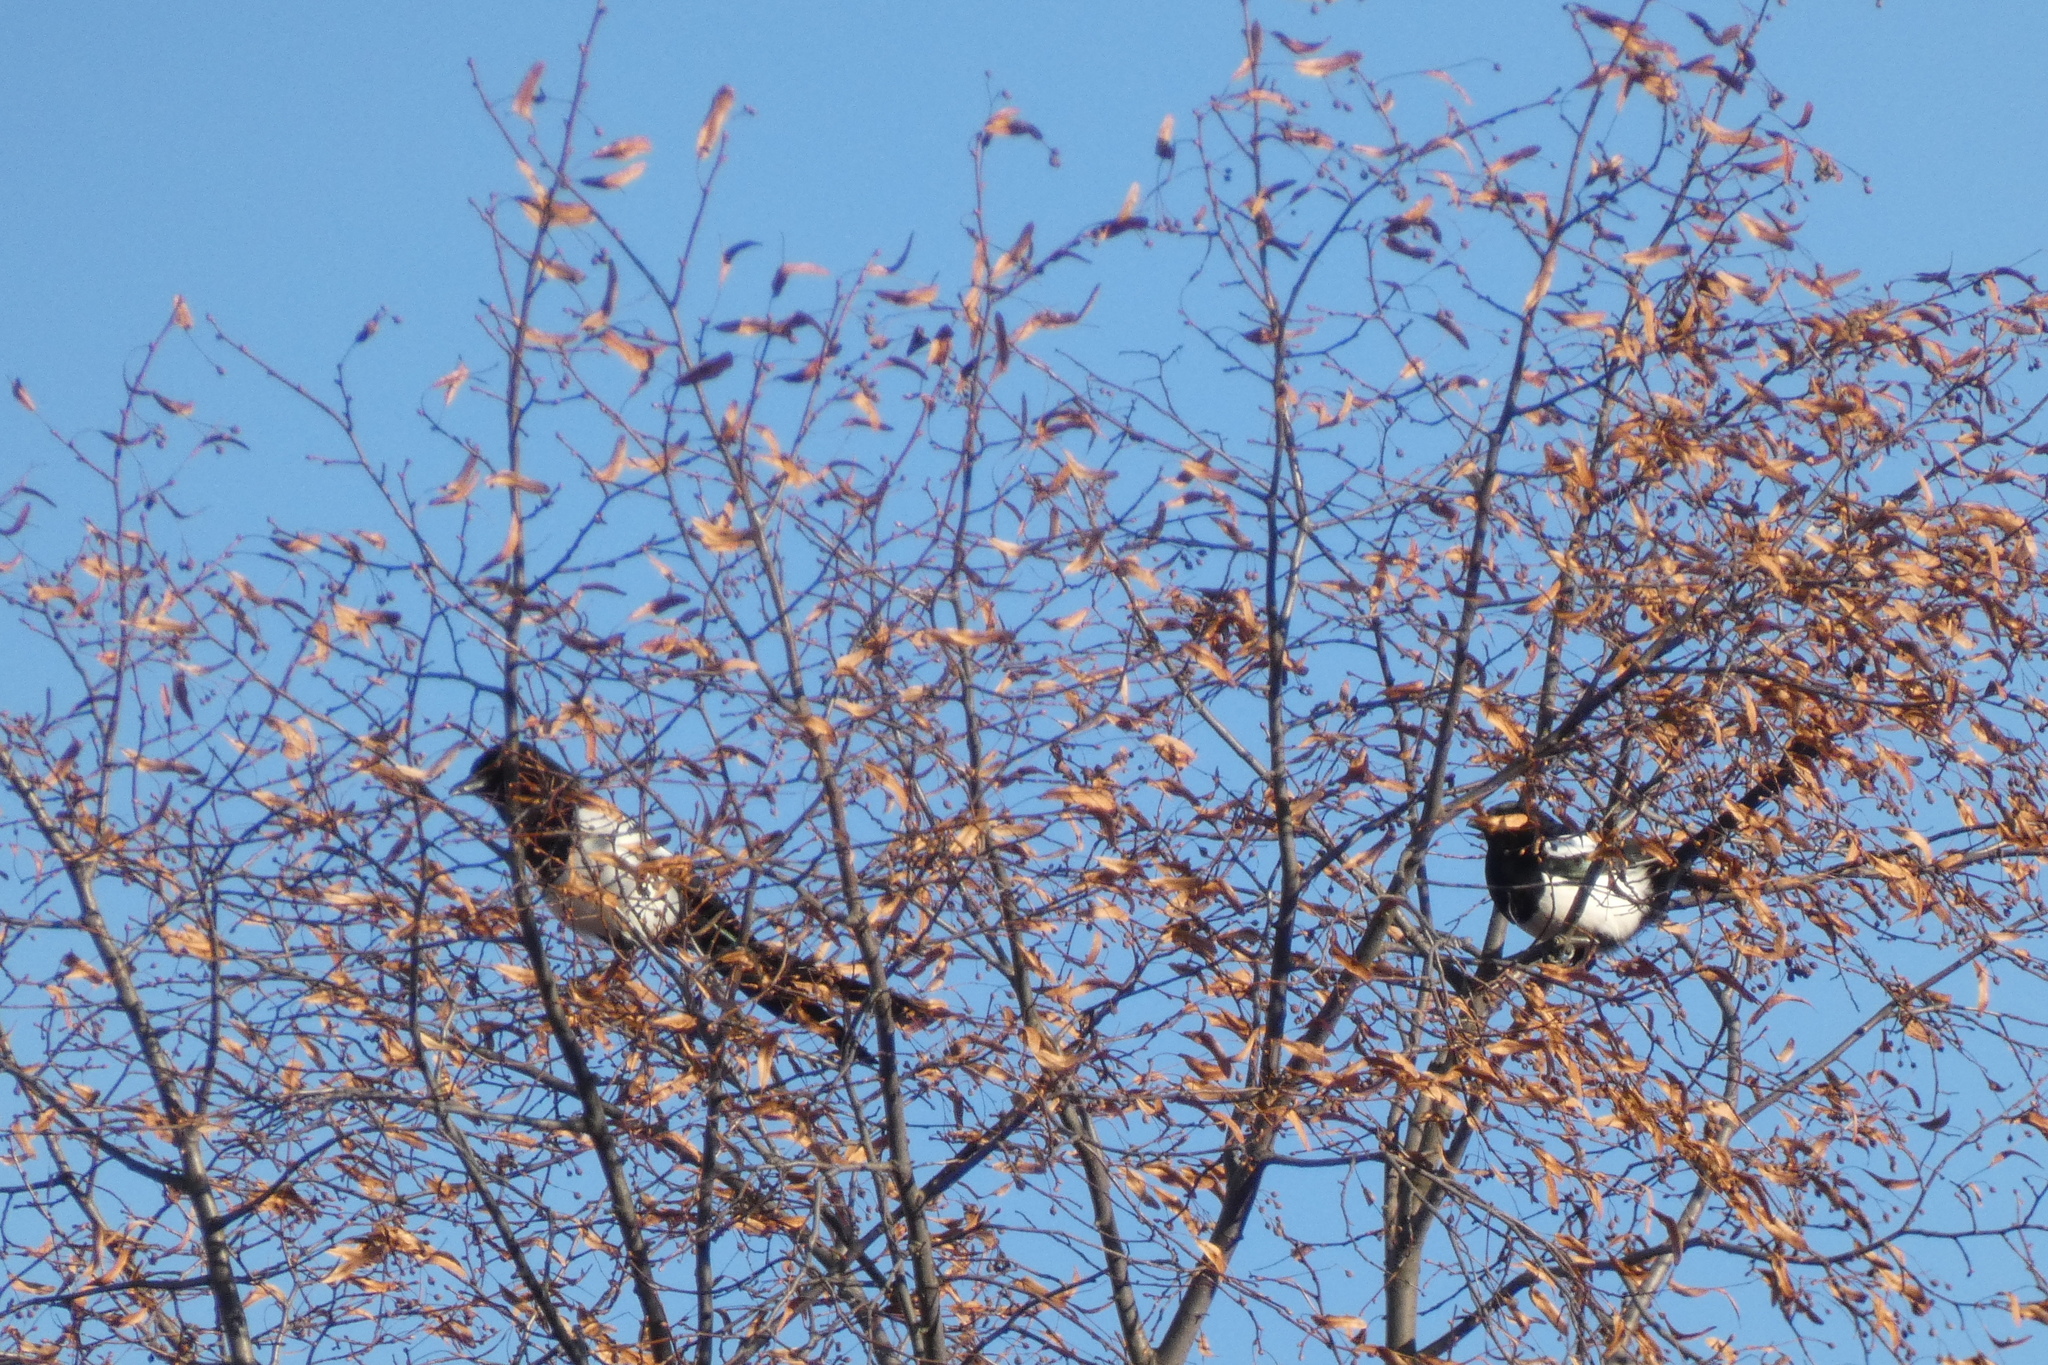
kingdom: Animalia
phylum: Chordata
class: Aves
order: Passeriformes
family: Corvidae
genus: Pica
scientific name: Pica pica
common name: Eurasian magpie
